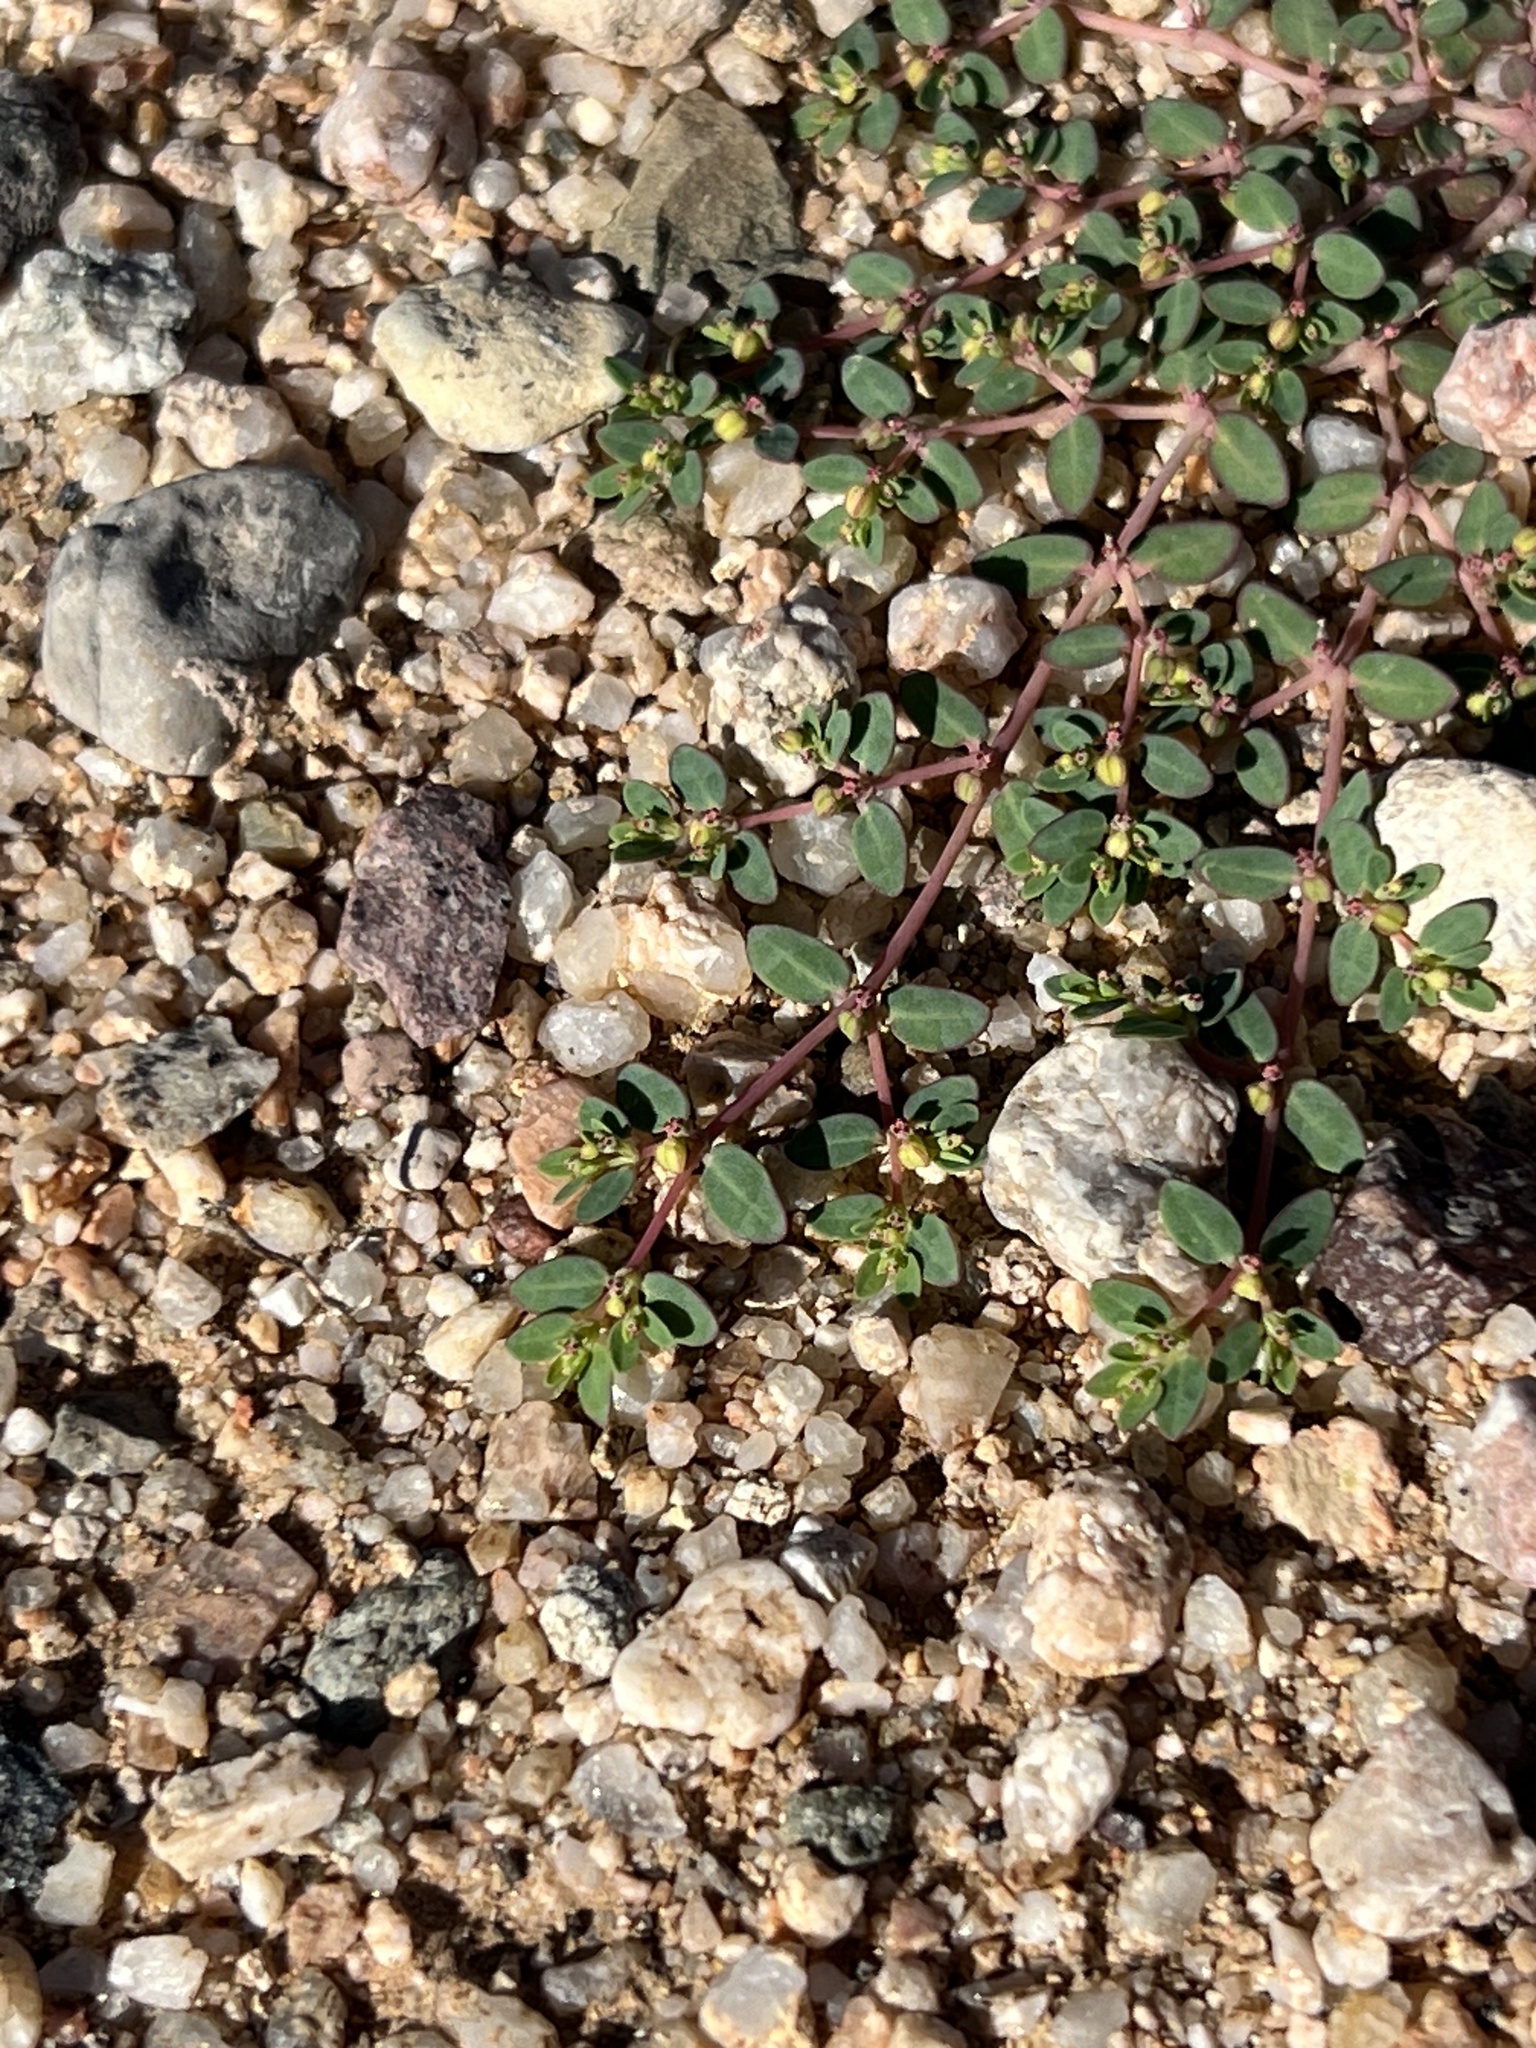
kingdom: Plantae
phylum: Tracheophyta
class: Magnoliopsida
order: Malpighiales
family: Euphorbiaceae
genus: Euphorbia
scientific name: Euphorbia micromera
